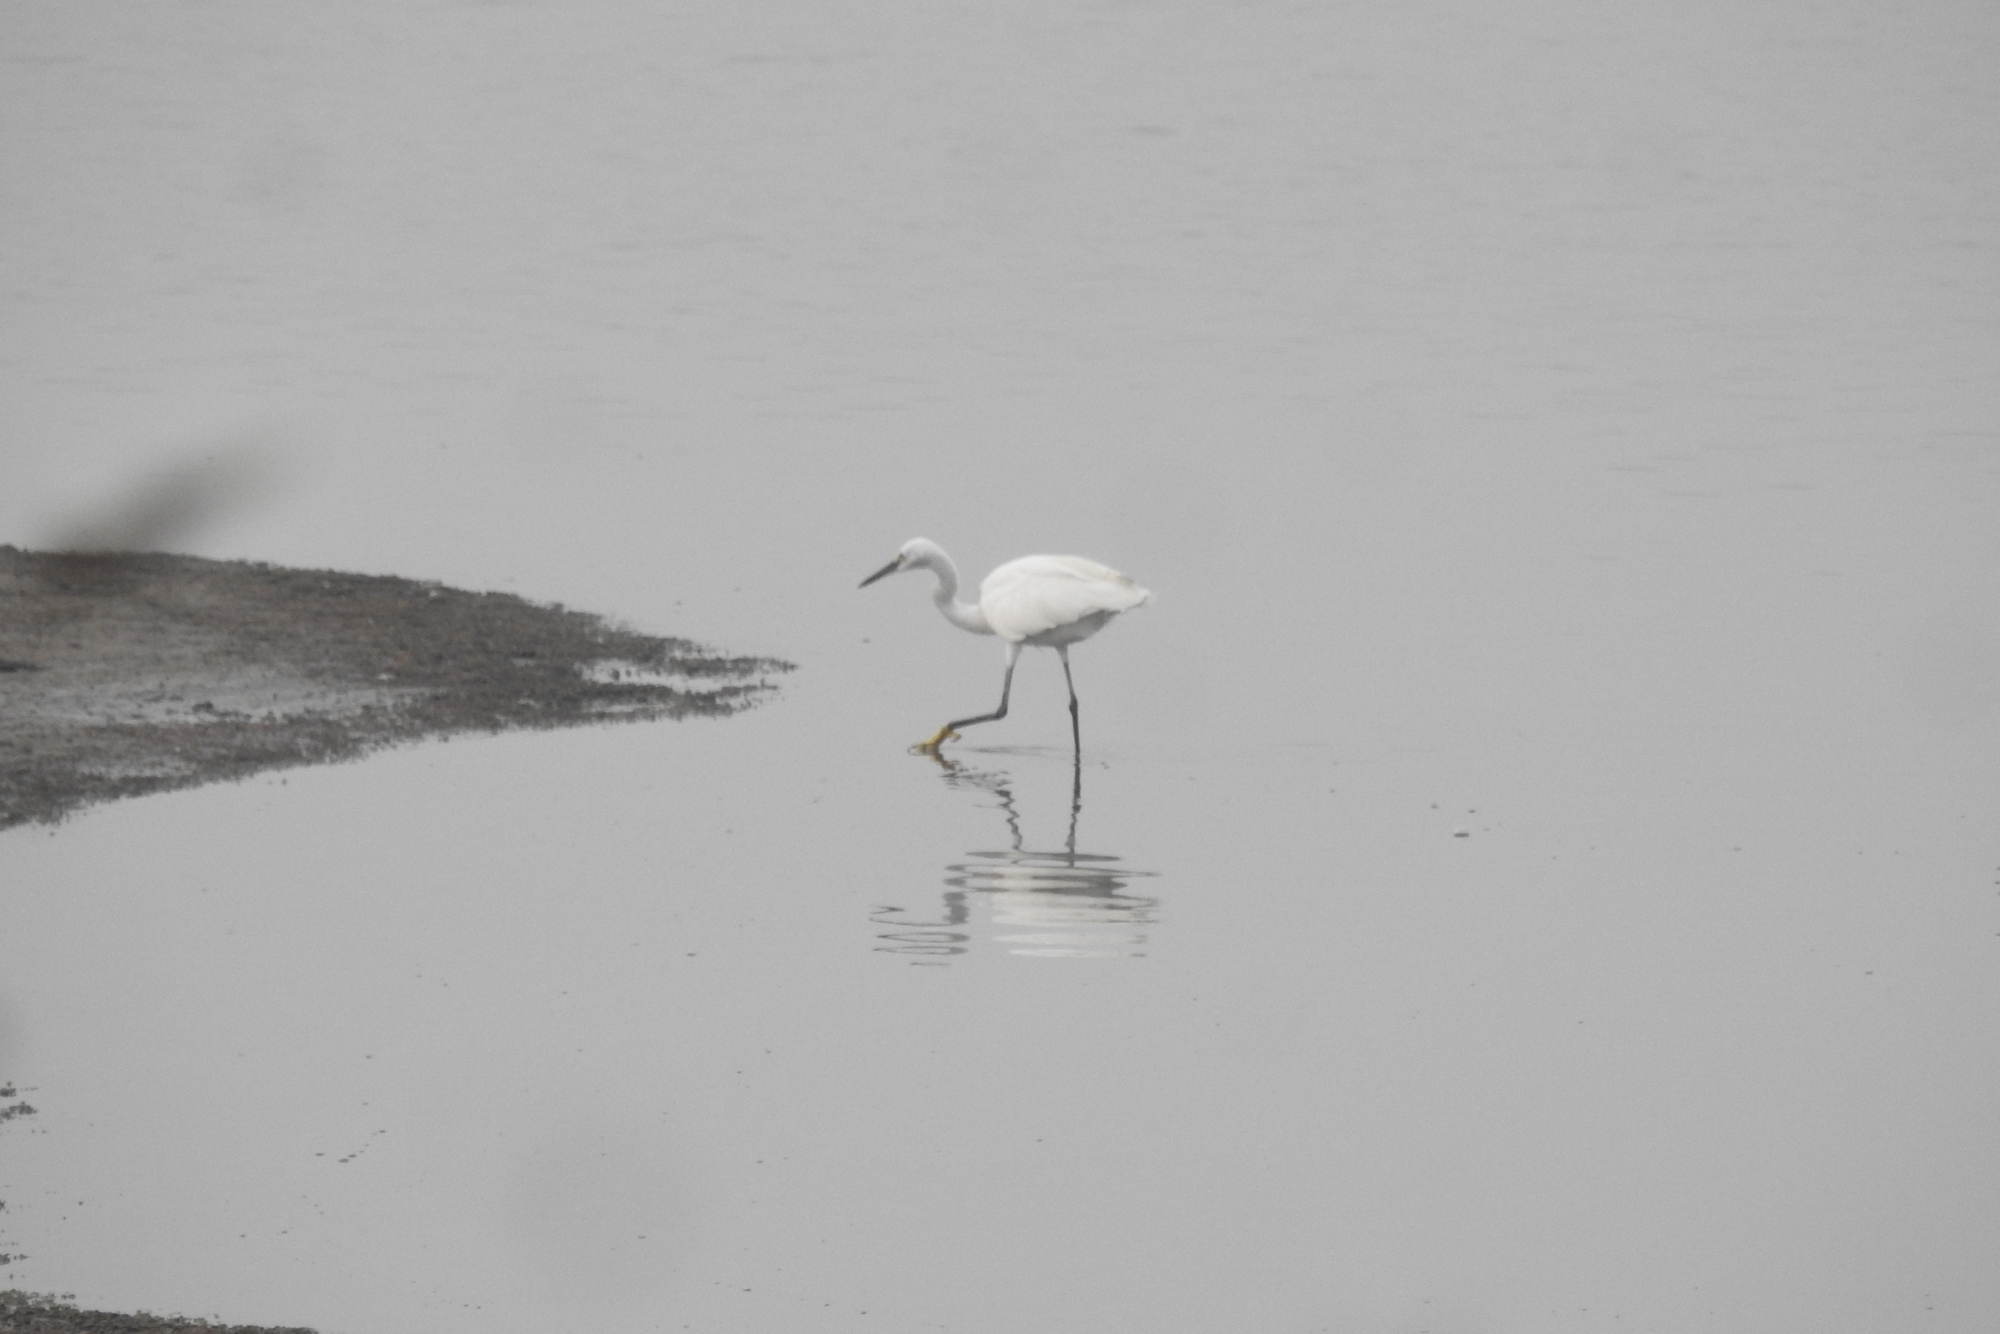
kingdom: Animalia
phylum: Chordata
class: Aves
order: Pelecaniformes
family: Ardeidae
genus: Egretta
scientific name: Egretta garzetta
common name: Little egret
